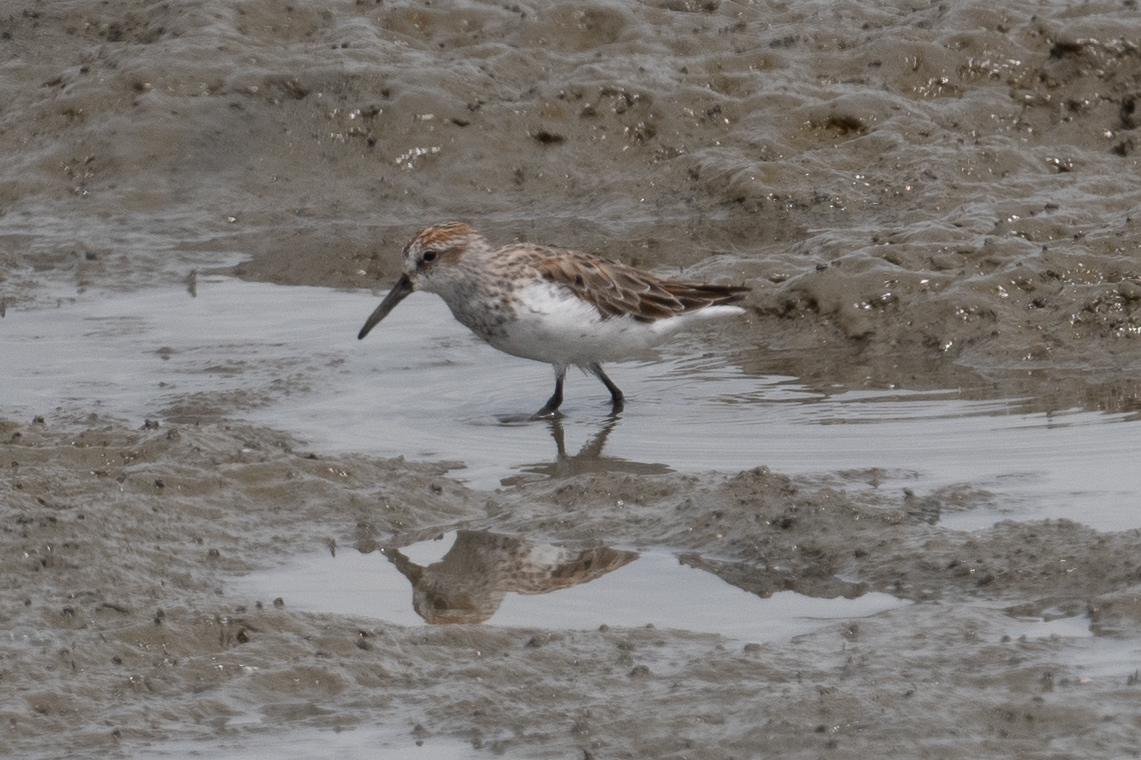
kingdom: Animalia
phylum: Chordata
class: Aves
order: Charadriiformes
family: Scolopacidae
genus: Calidris
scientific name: Calidris mauri
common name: Western sandpiper
